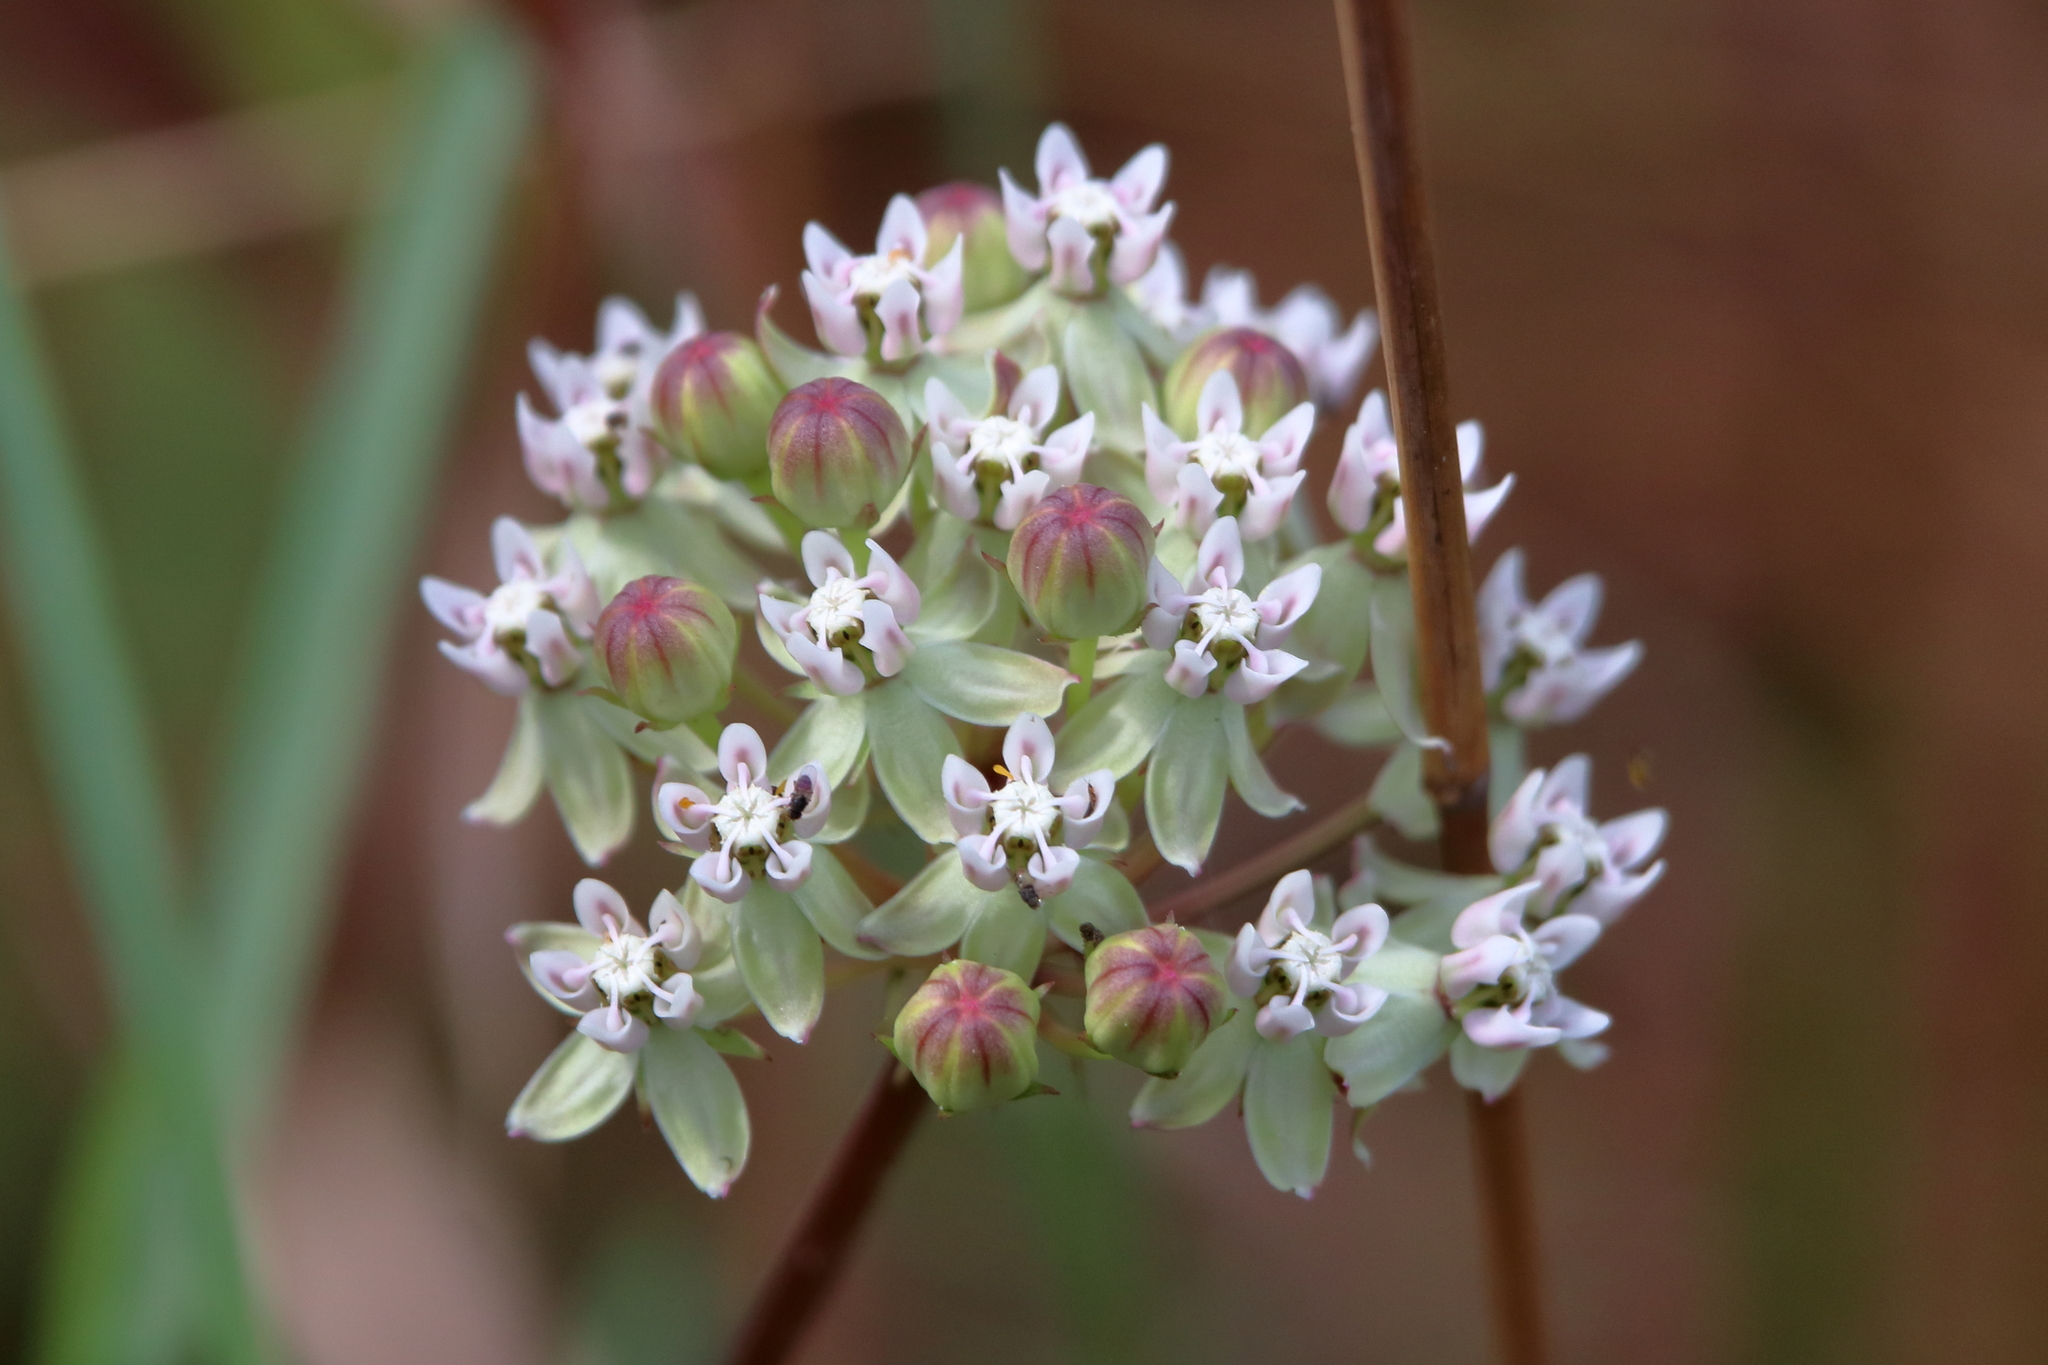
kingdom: Plantae
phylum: Tracheophyta
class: Magnoliopsida
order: Gentianales
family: Apocynaceae
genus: Asclepias
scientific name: Asclepias michauxii
